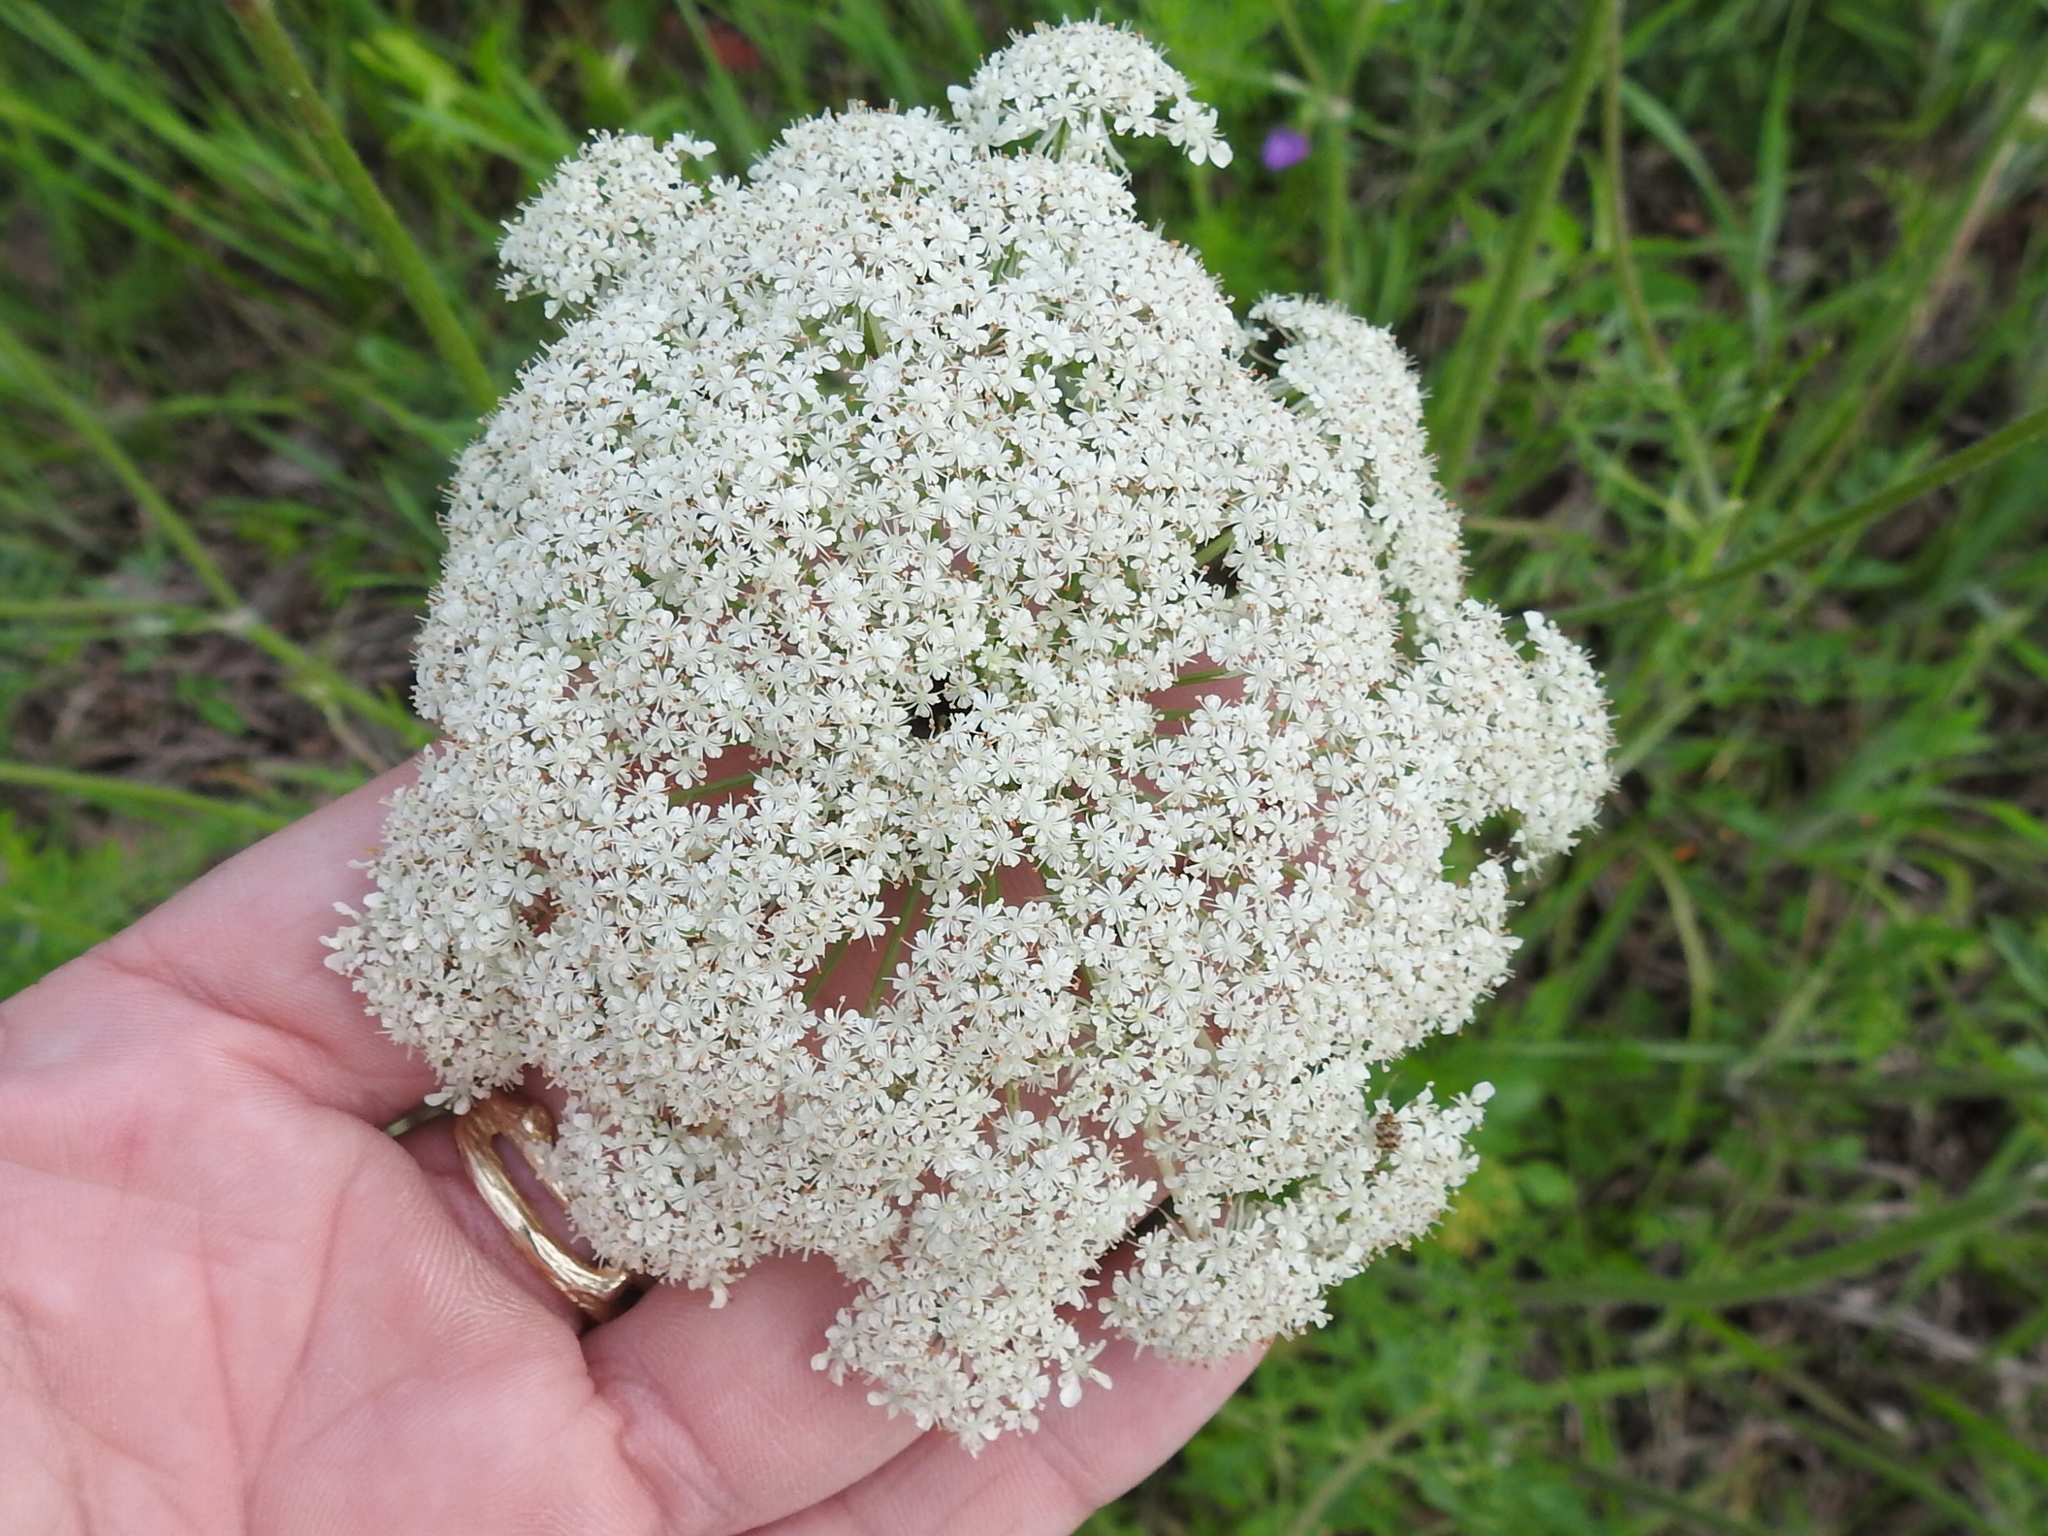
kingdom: Plantae
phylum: Tracheophyta
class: Magnoliopsida
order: Apiales
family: Apiaceae
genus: Daucus
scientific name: Daucus carota
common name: Wild carrot
